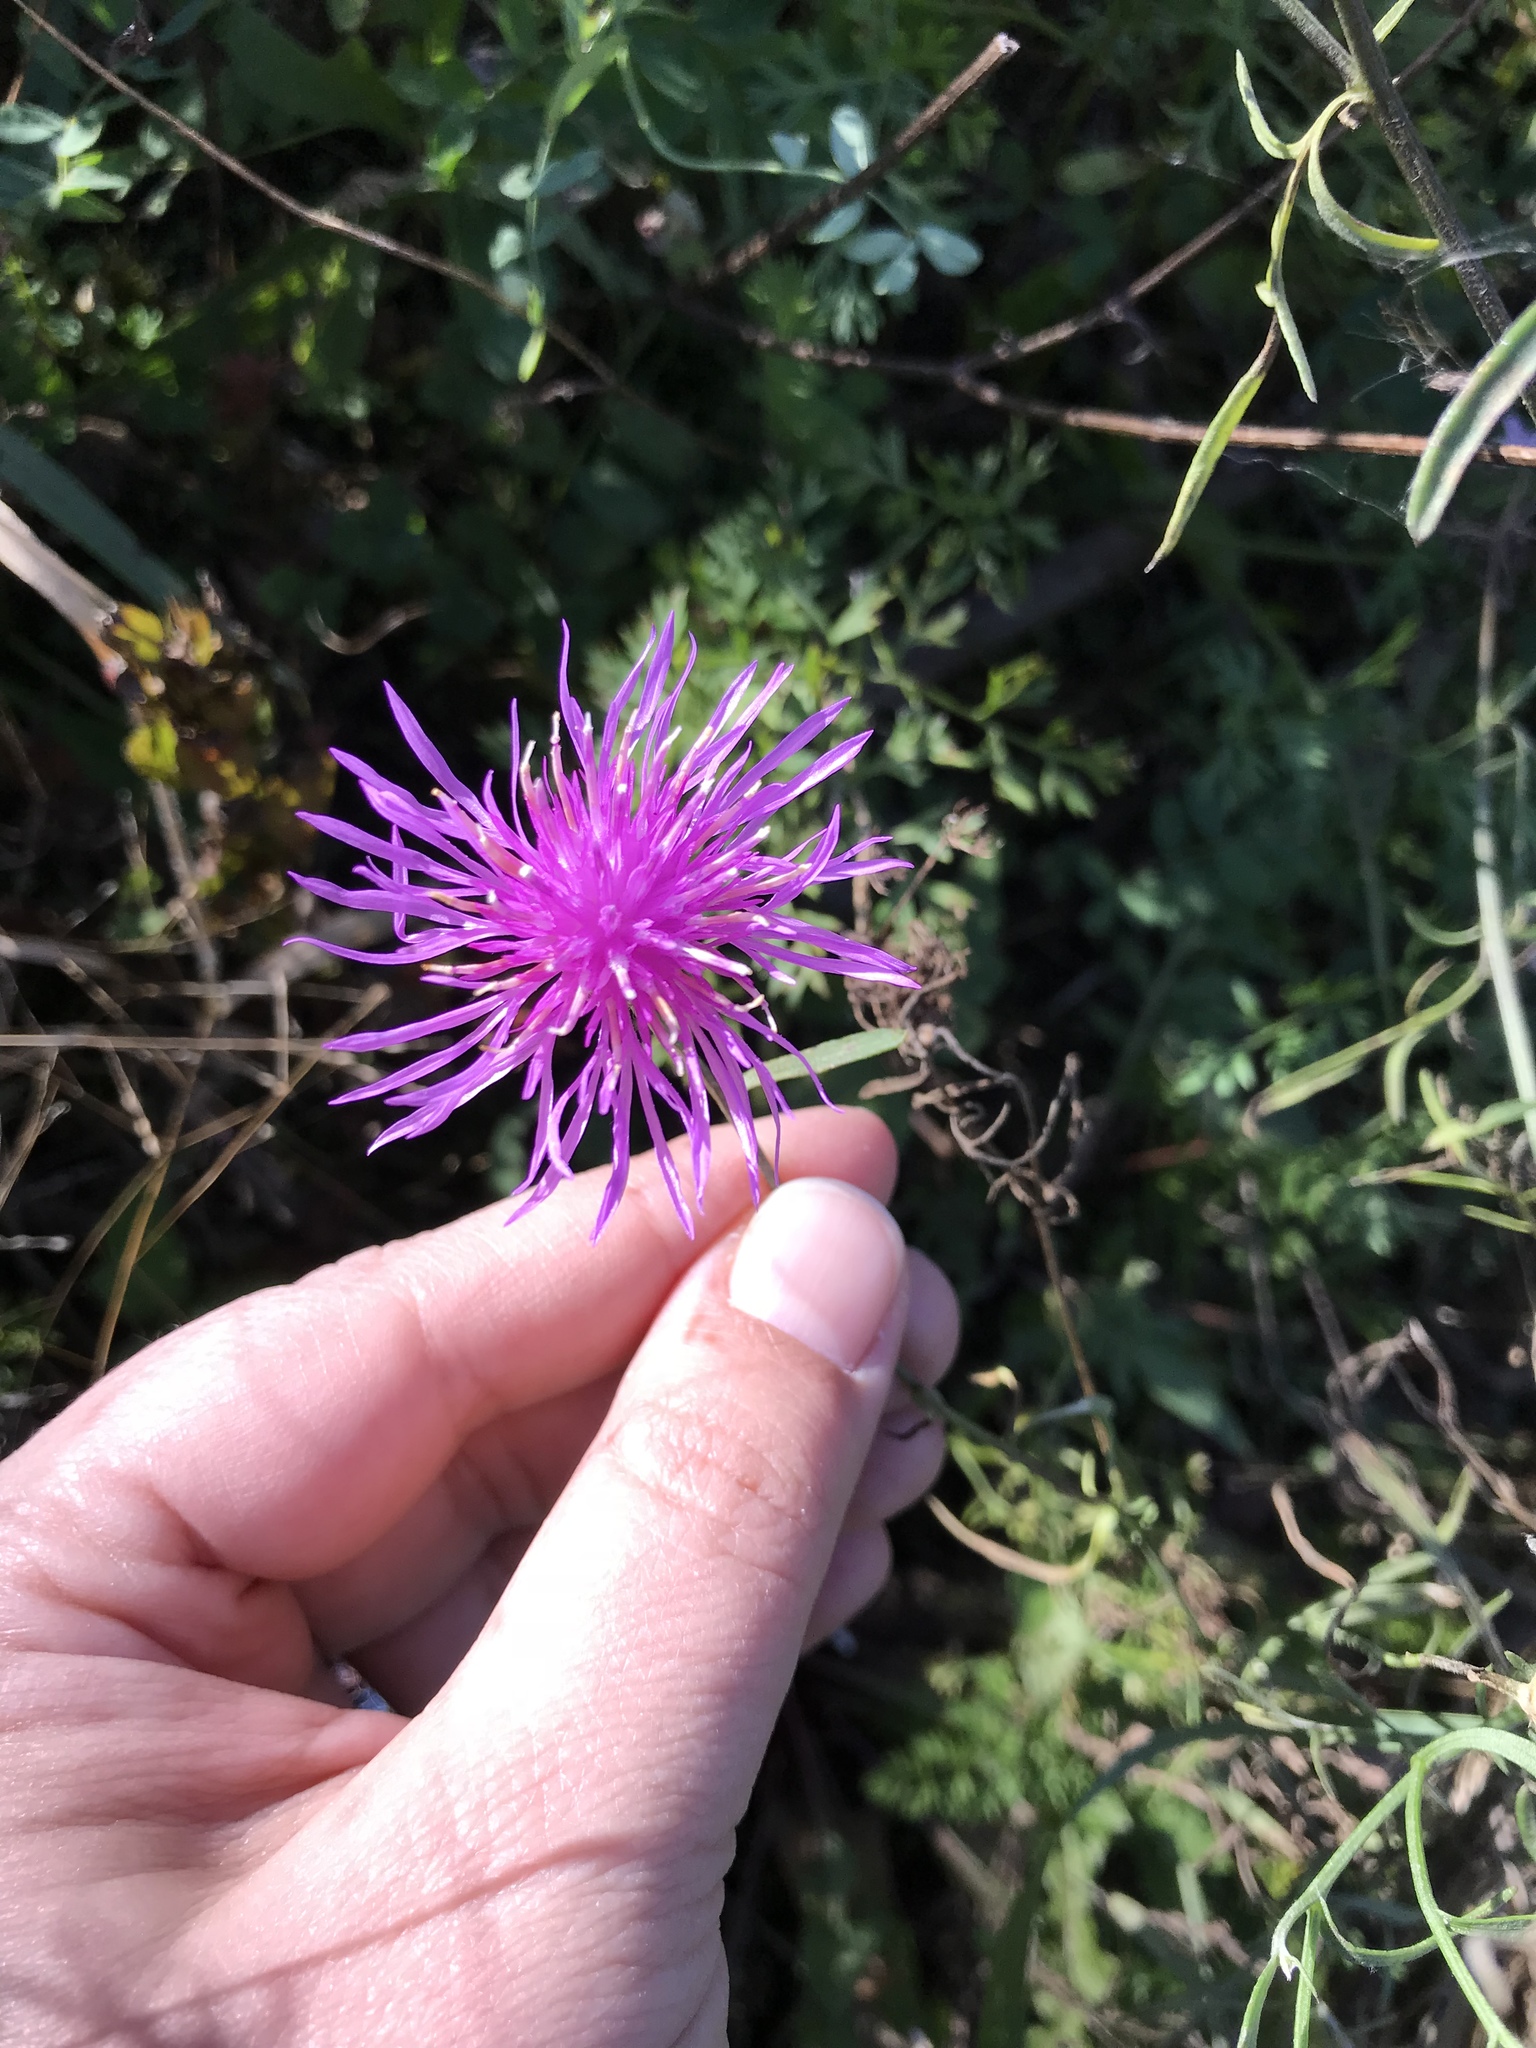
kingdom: Plantae
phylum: Tracheophyta
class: Magnoliopsida
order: Asterales
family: Asteraceae
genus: Centaurea
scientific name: Centaurea australis
